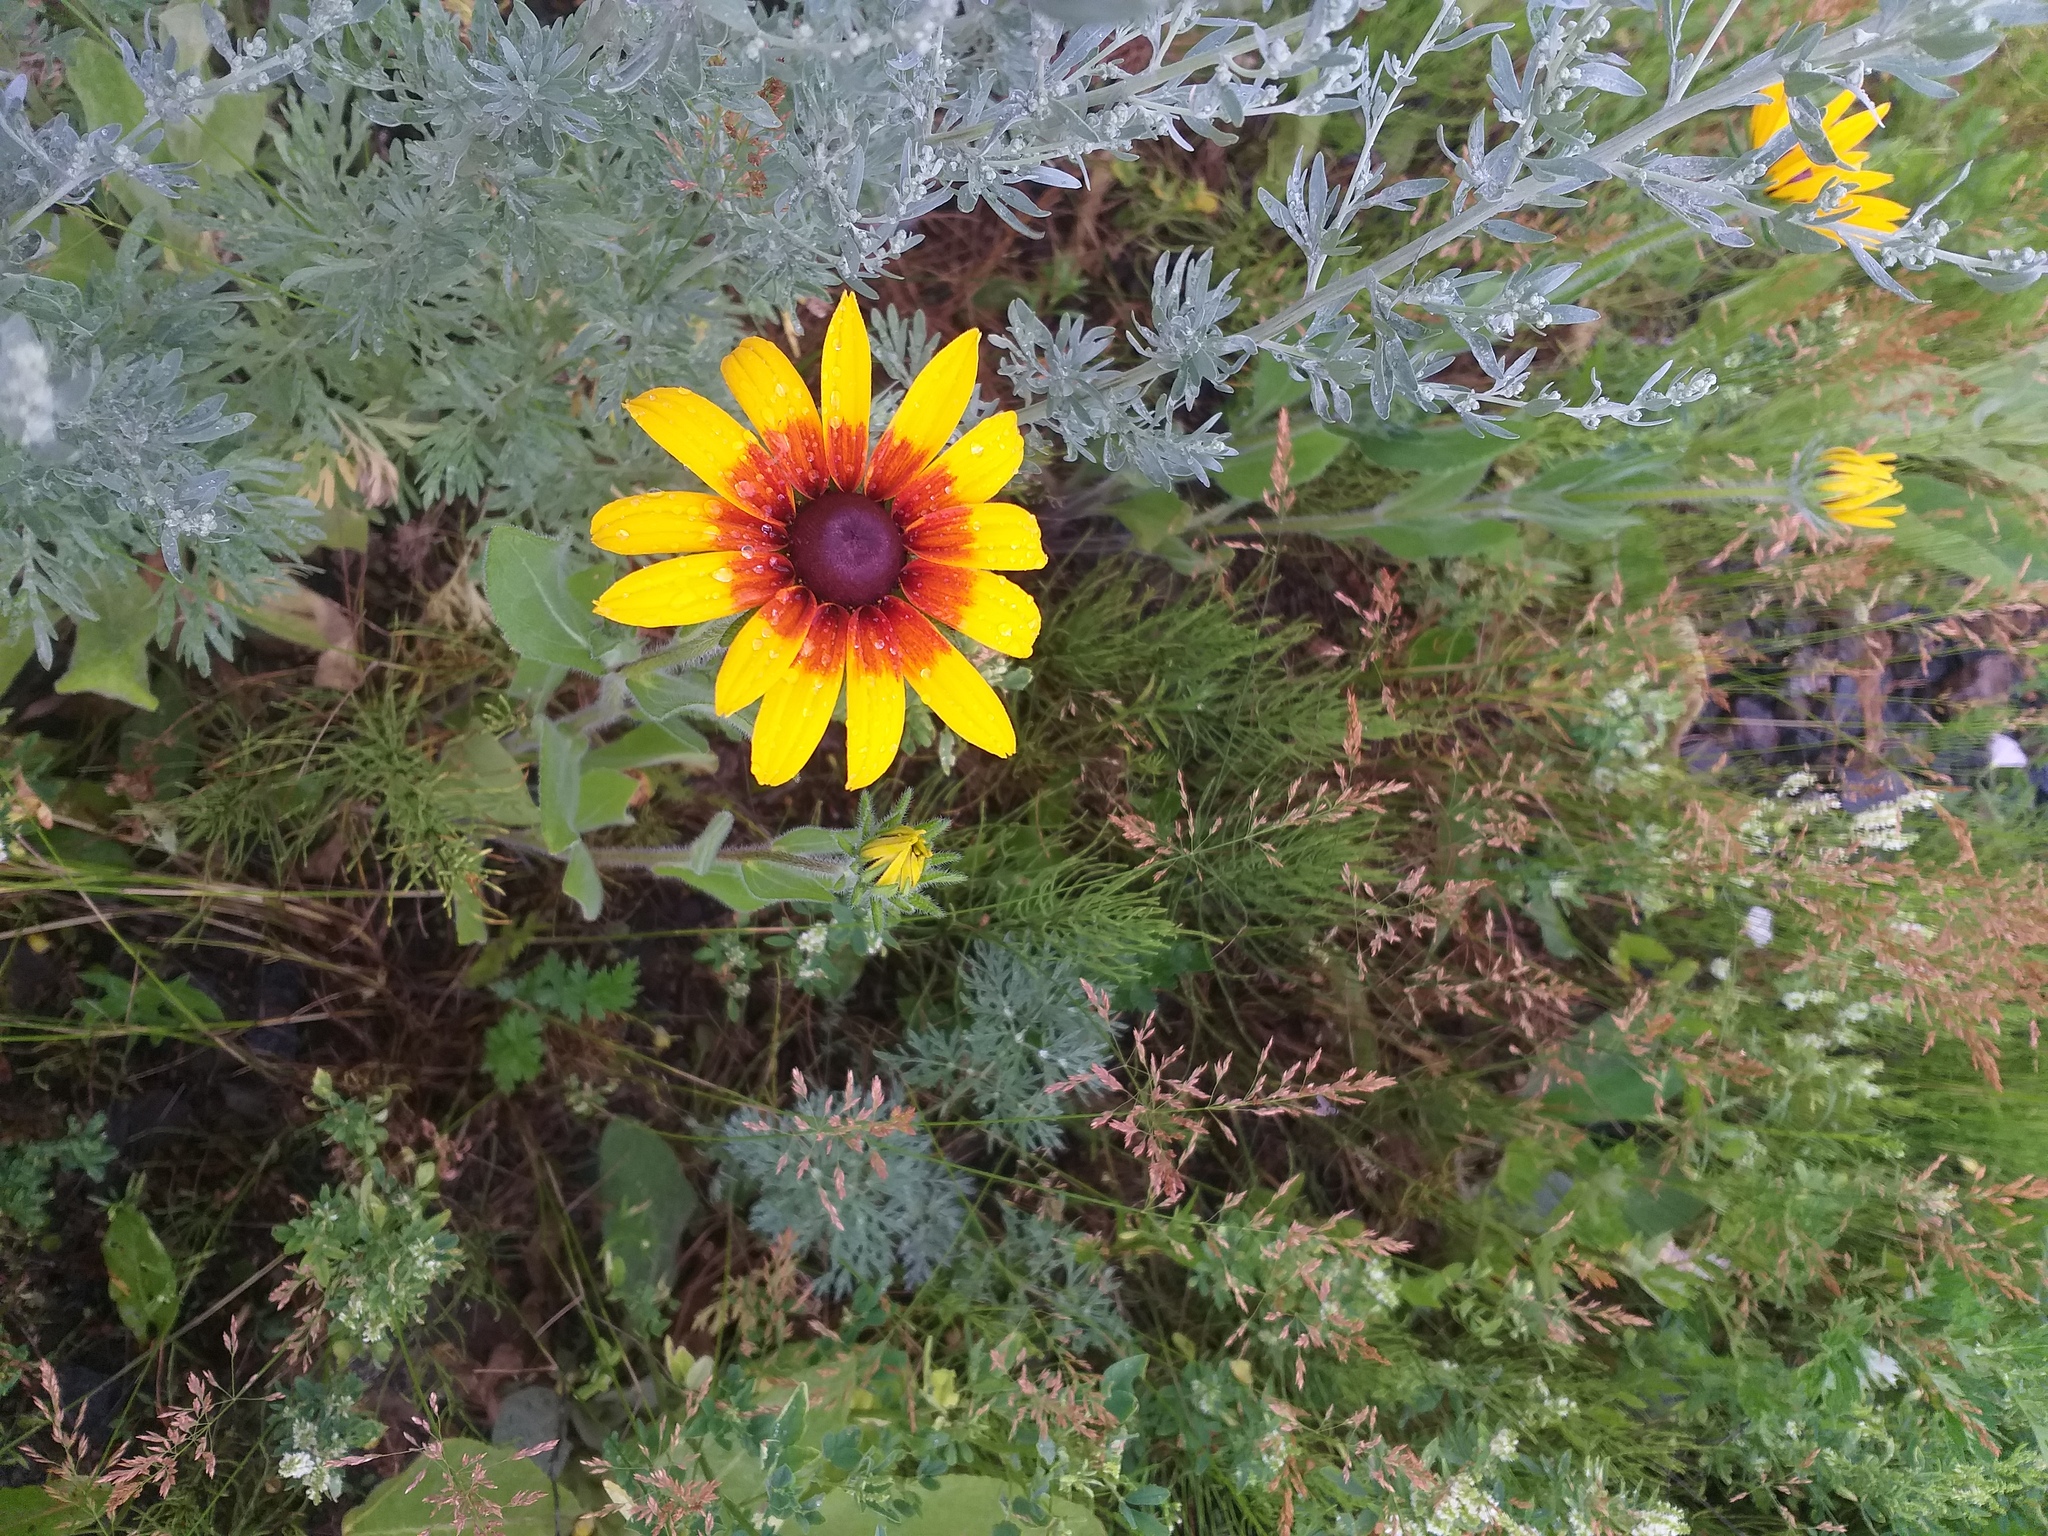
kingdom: Plantae
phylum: Tracheophyta
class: Magnoliopsida
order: Asterales
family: Asteraceae
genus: Rudbeckia
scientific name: Rudbeckia hirta
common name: Black-eyed-susan
